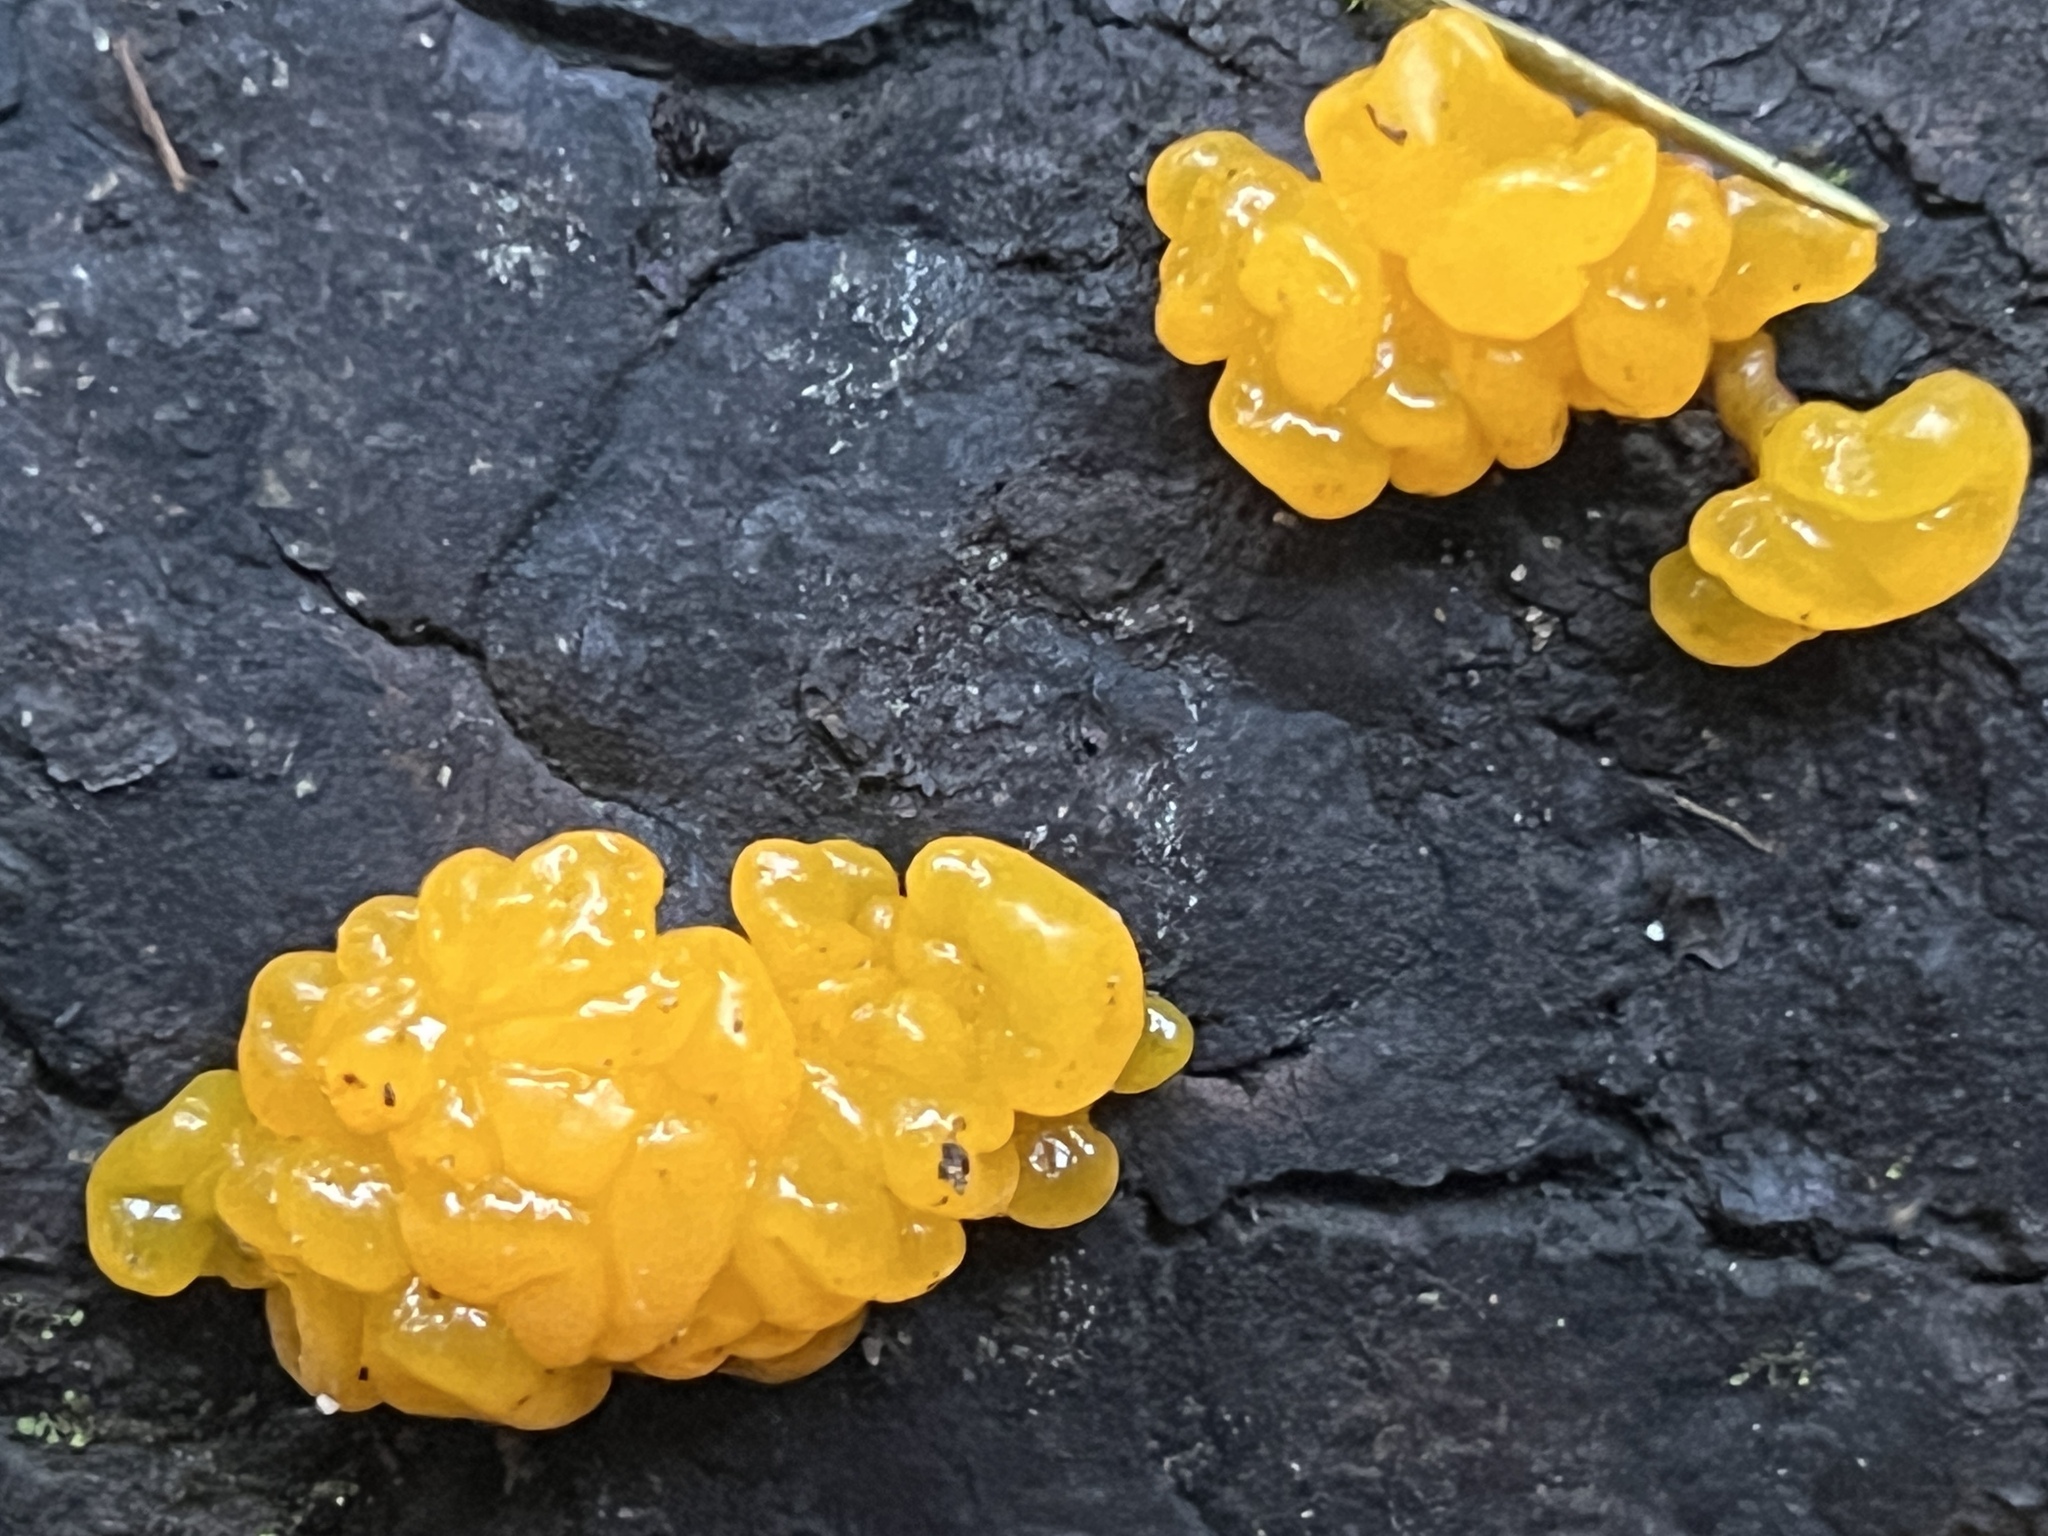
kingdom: Fungi
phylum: Basidiomycota
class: Dacrymycetes
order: Dacrymycetales
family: Dacrymycetaceae
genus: Dacrymyces
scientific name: Dacrymyces chrysospermus
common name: Orange jelly spot
